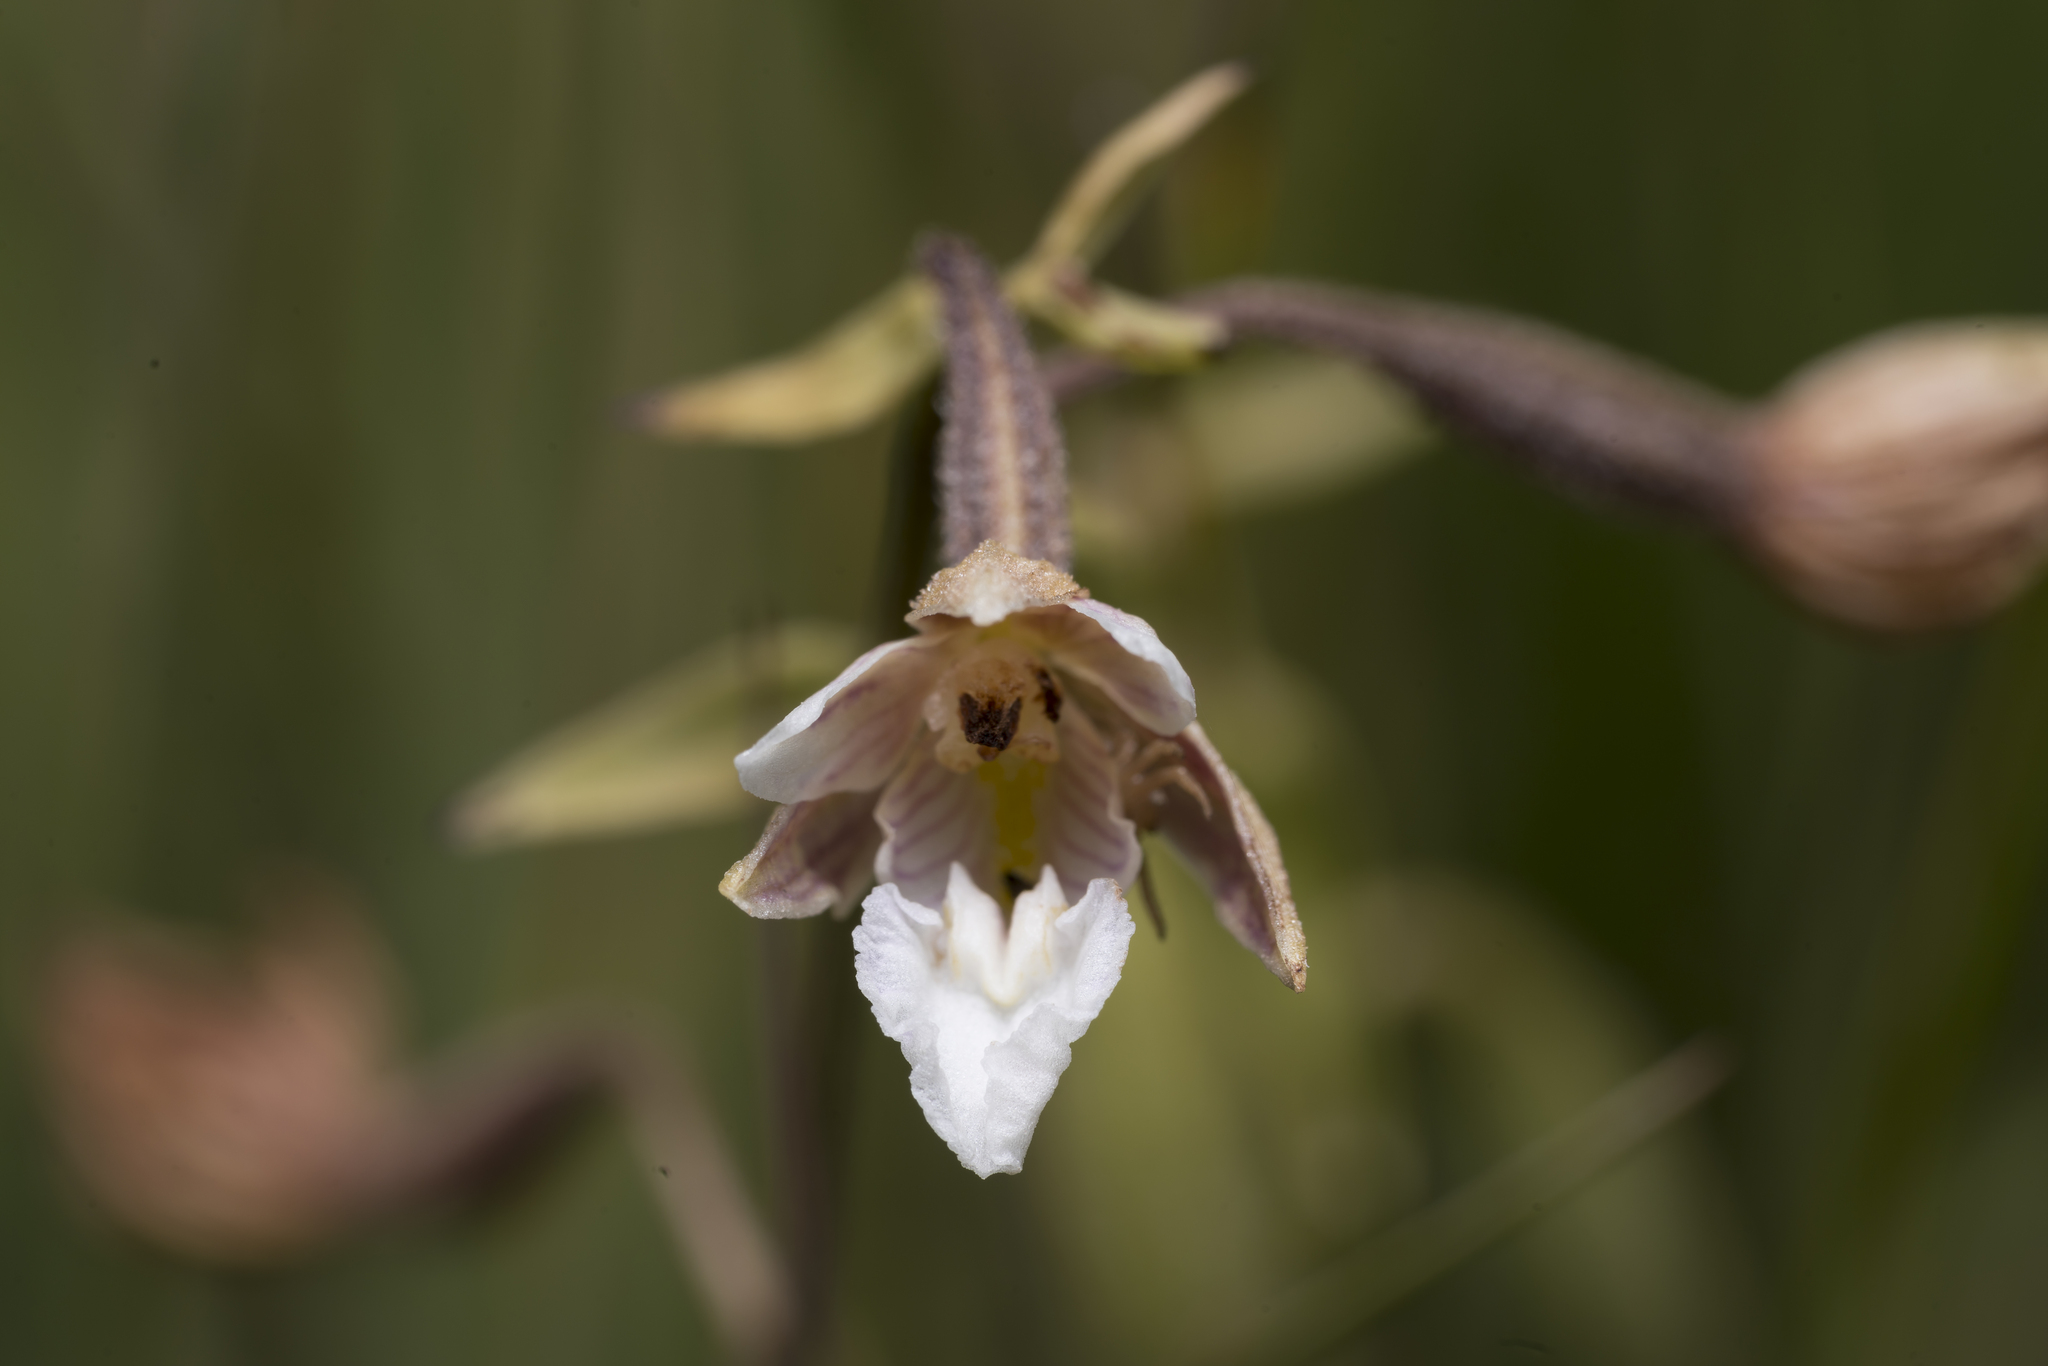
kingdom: Plantae
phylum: Tracheophyta
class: Liliopsida
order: Asparagales
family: Orchidaceae
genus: Epipactis
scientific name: Epipactis palustris
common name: Marsh helleborine
